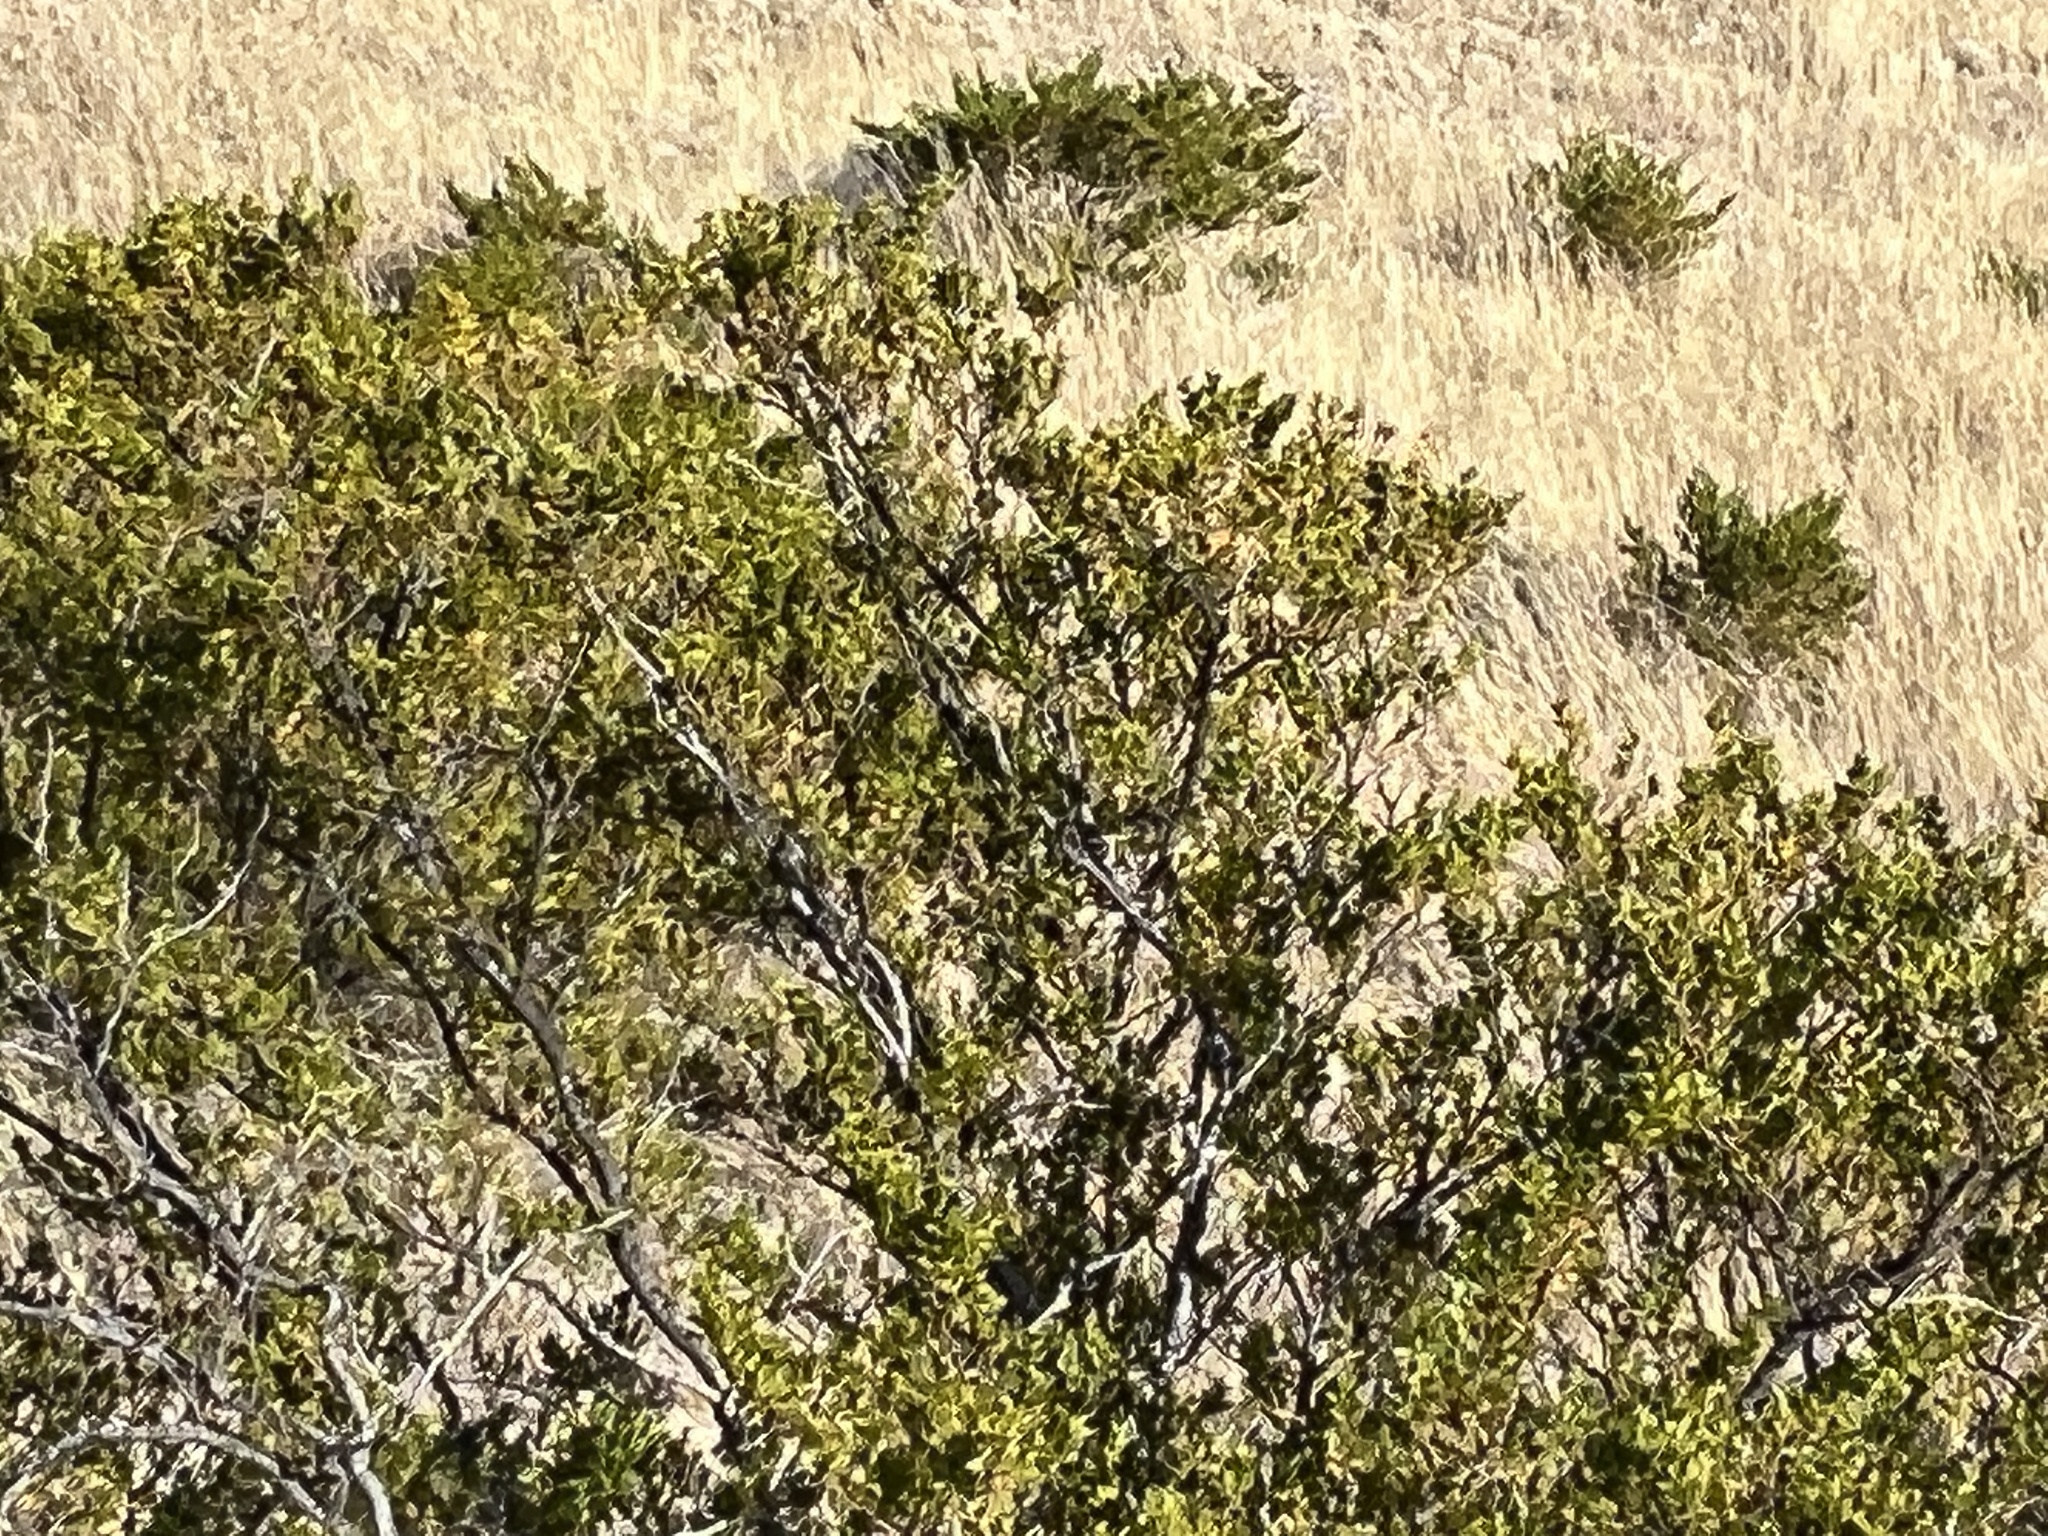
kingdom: Plantae
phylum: Tracheophyta
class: Magnoliopsida
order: Zygophyllales
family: Zygophyllaceae
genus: Larrea
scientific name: Larrea tridentata
